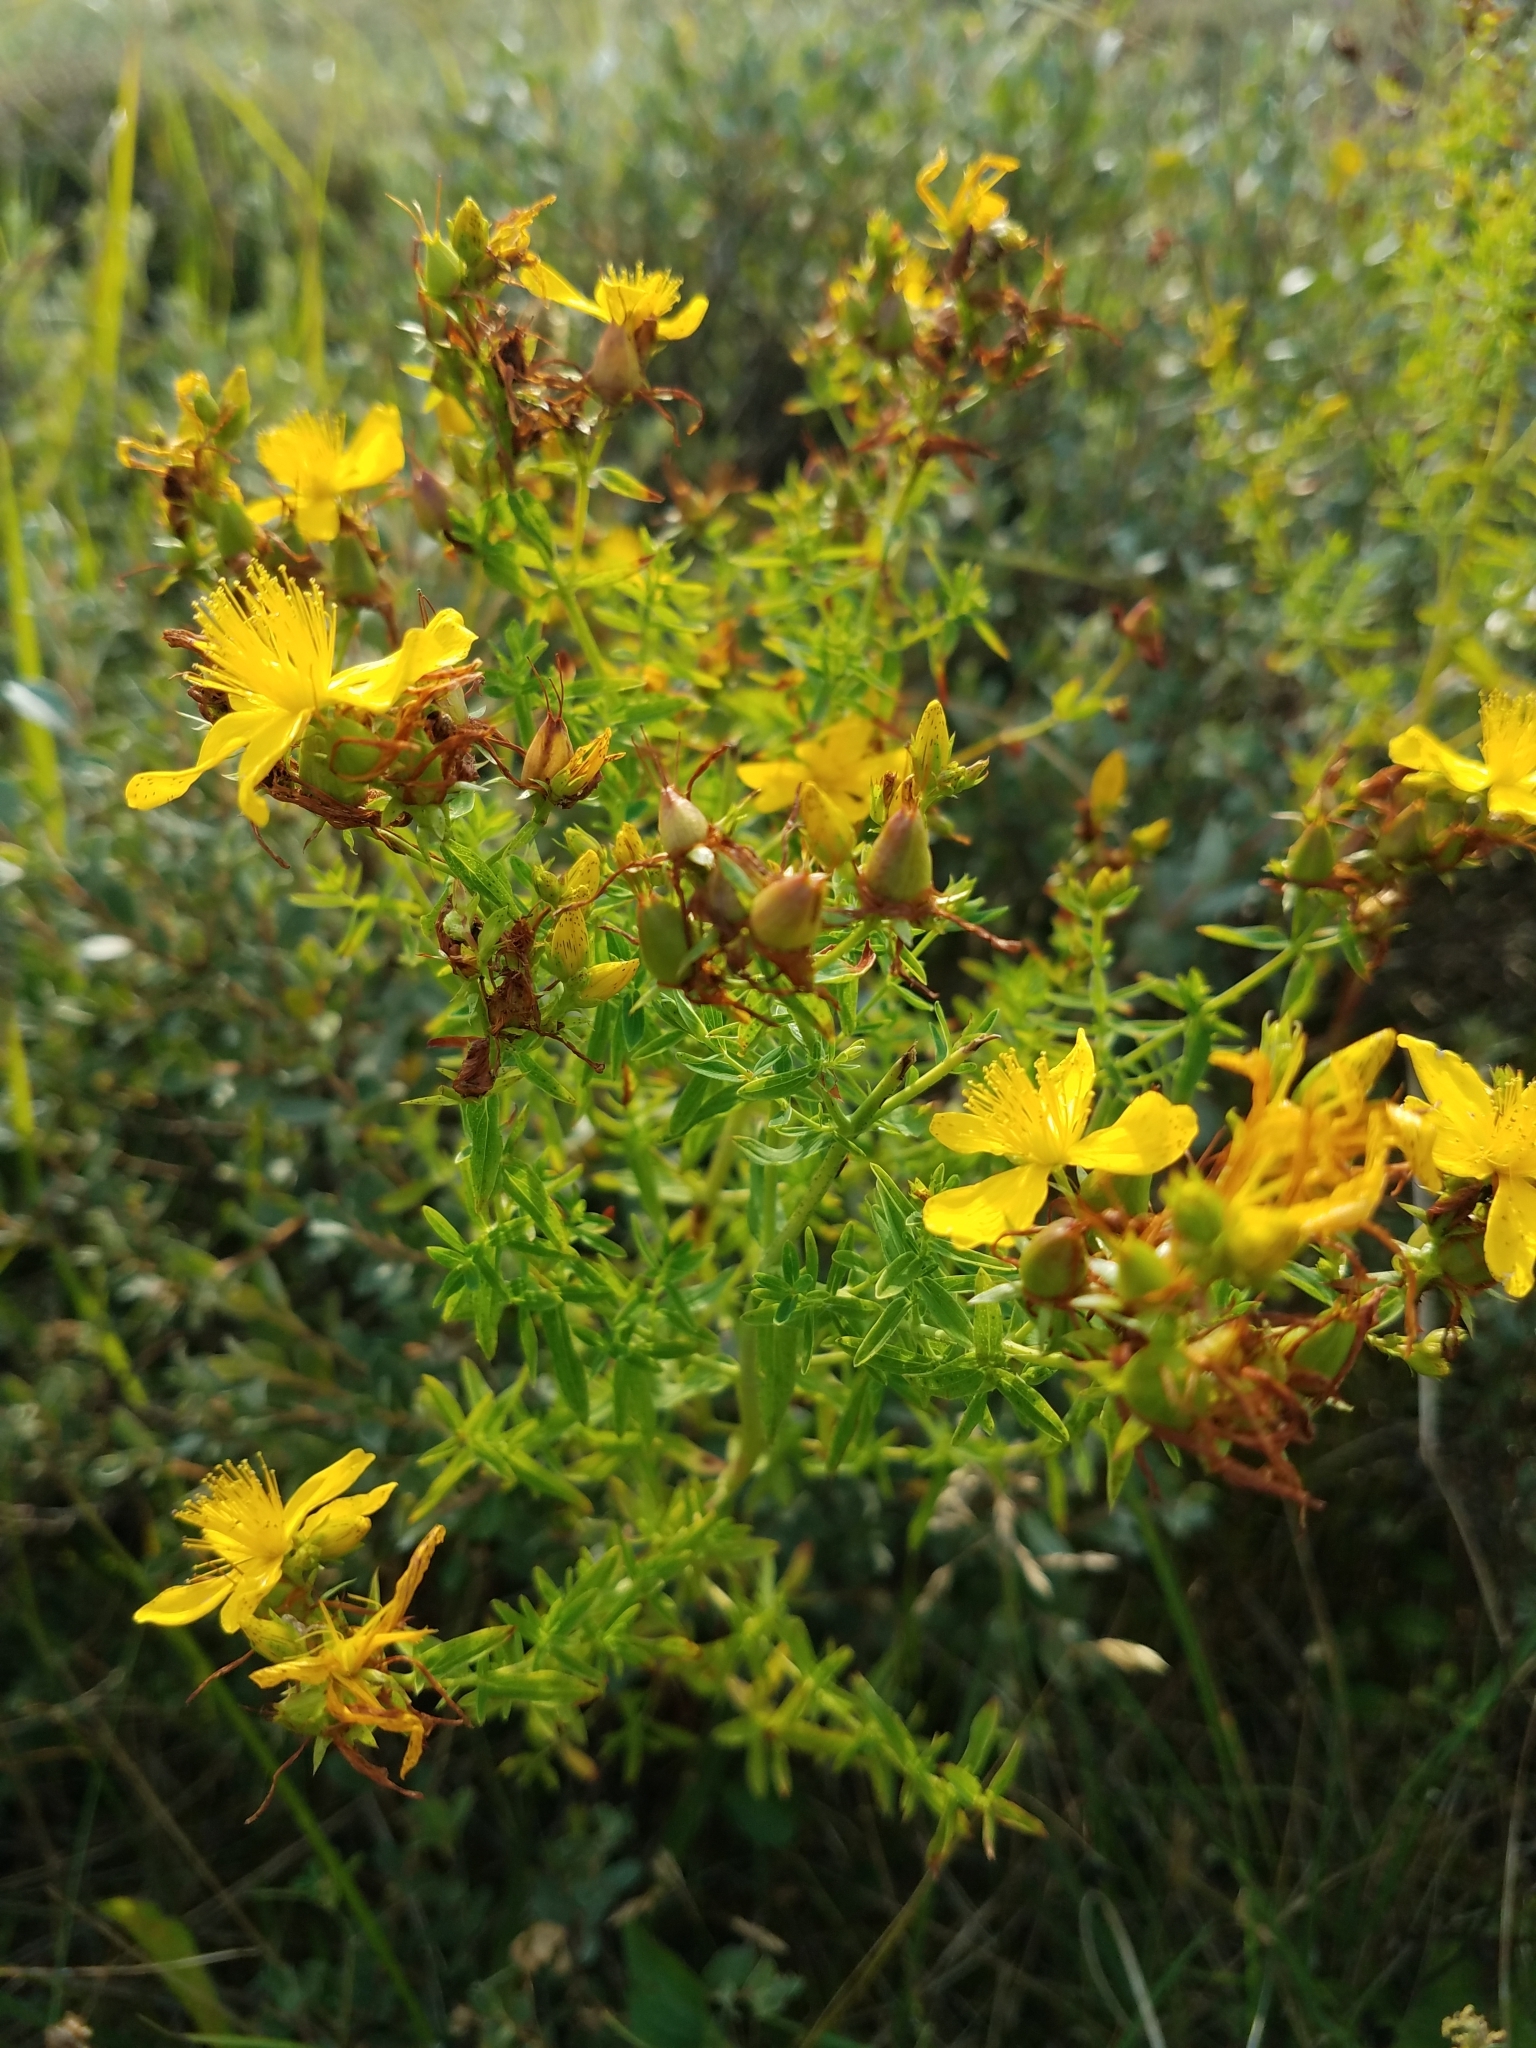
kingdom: Plantae
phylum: Tracheophyta
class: Magnoliopsida
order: Malpighiales
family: Hypericaceae
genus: Hypericum
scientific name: Hypericum perforatum
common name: Common st. johnswort
